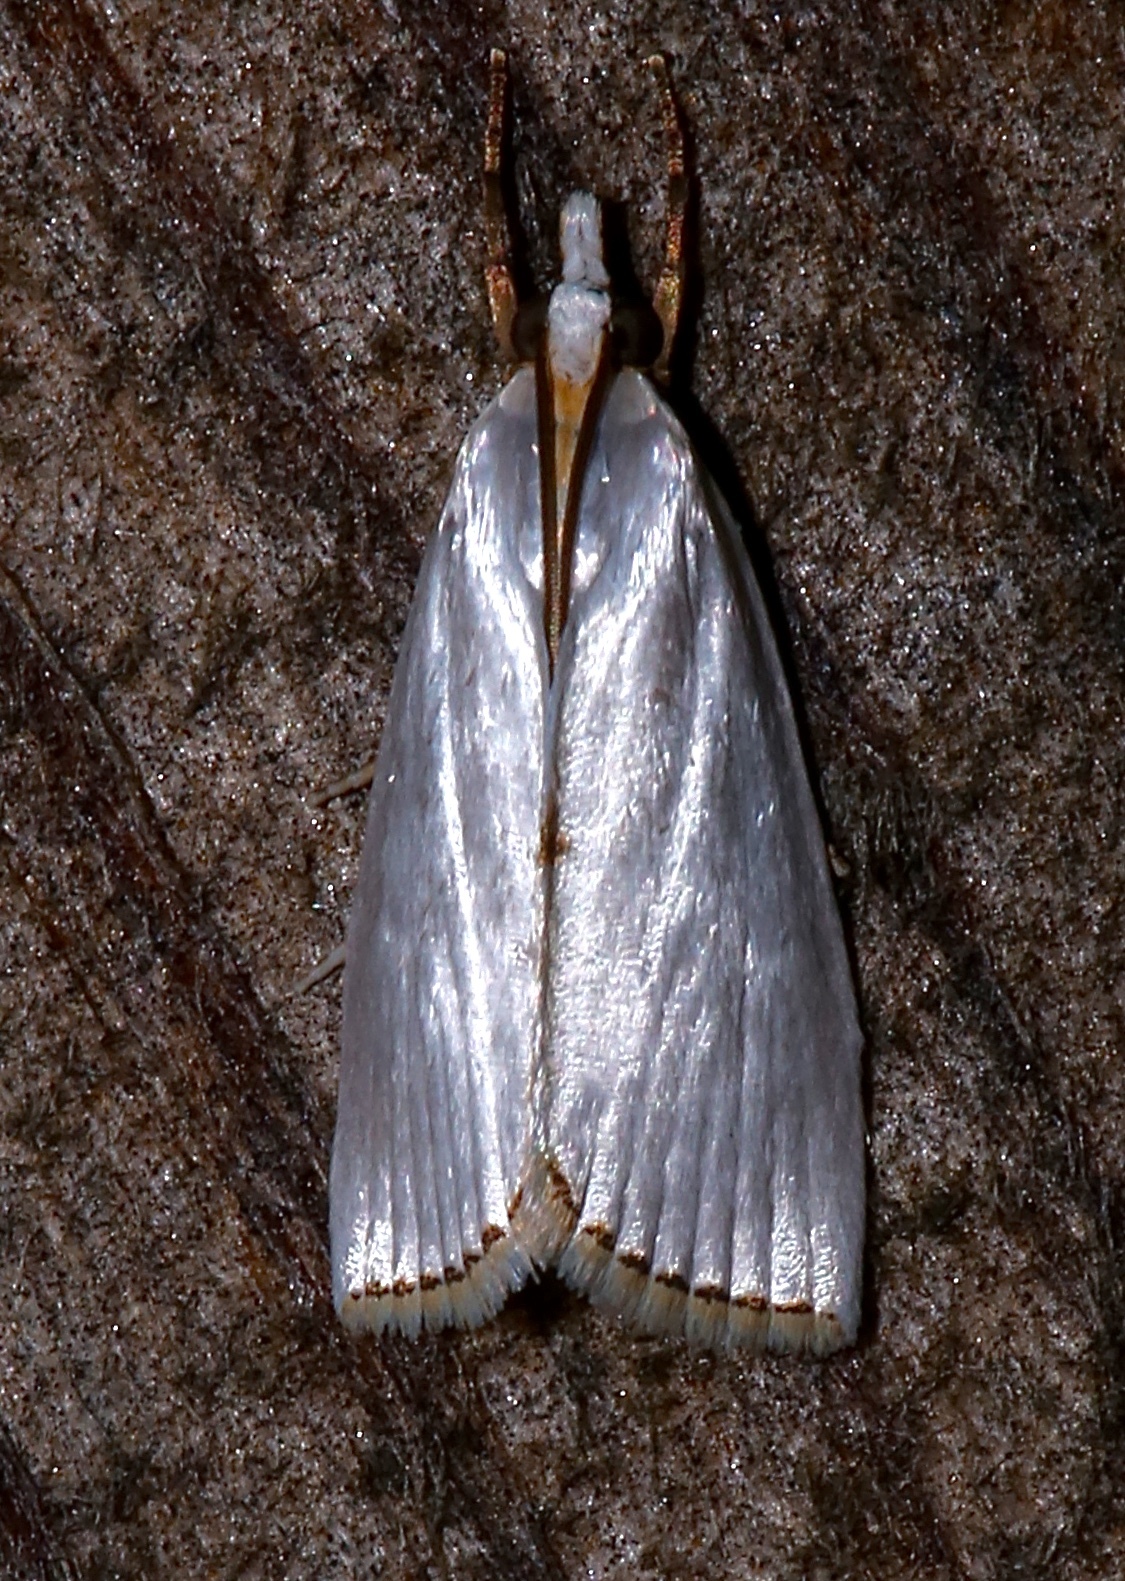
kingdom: Animalia
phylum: Arthropoda
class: Insecta
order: Lepidoptera
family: Crambidae
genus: Argyria
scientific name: Argyria nivalis
